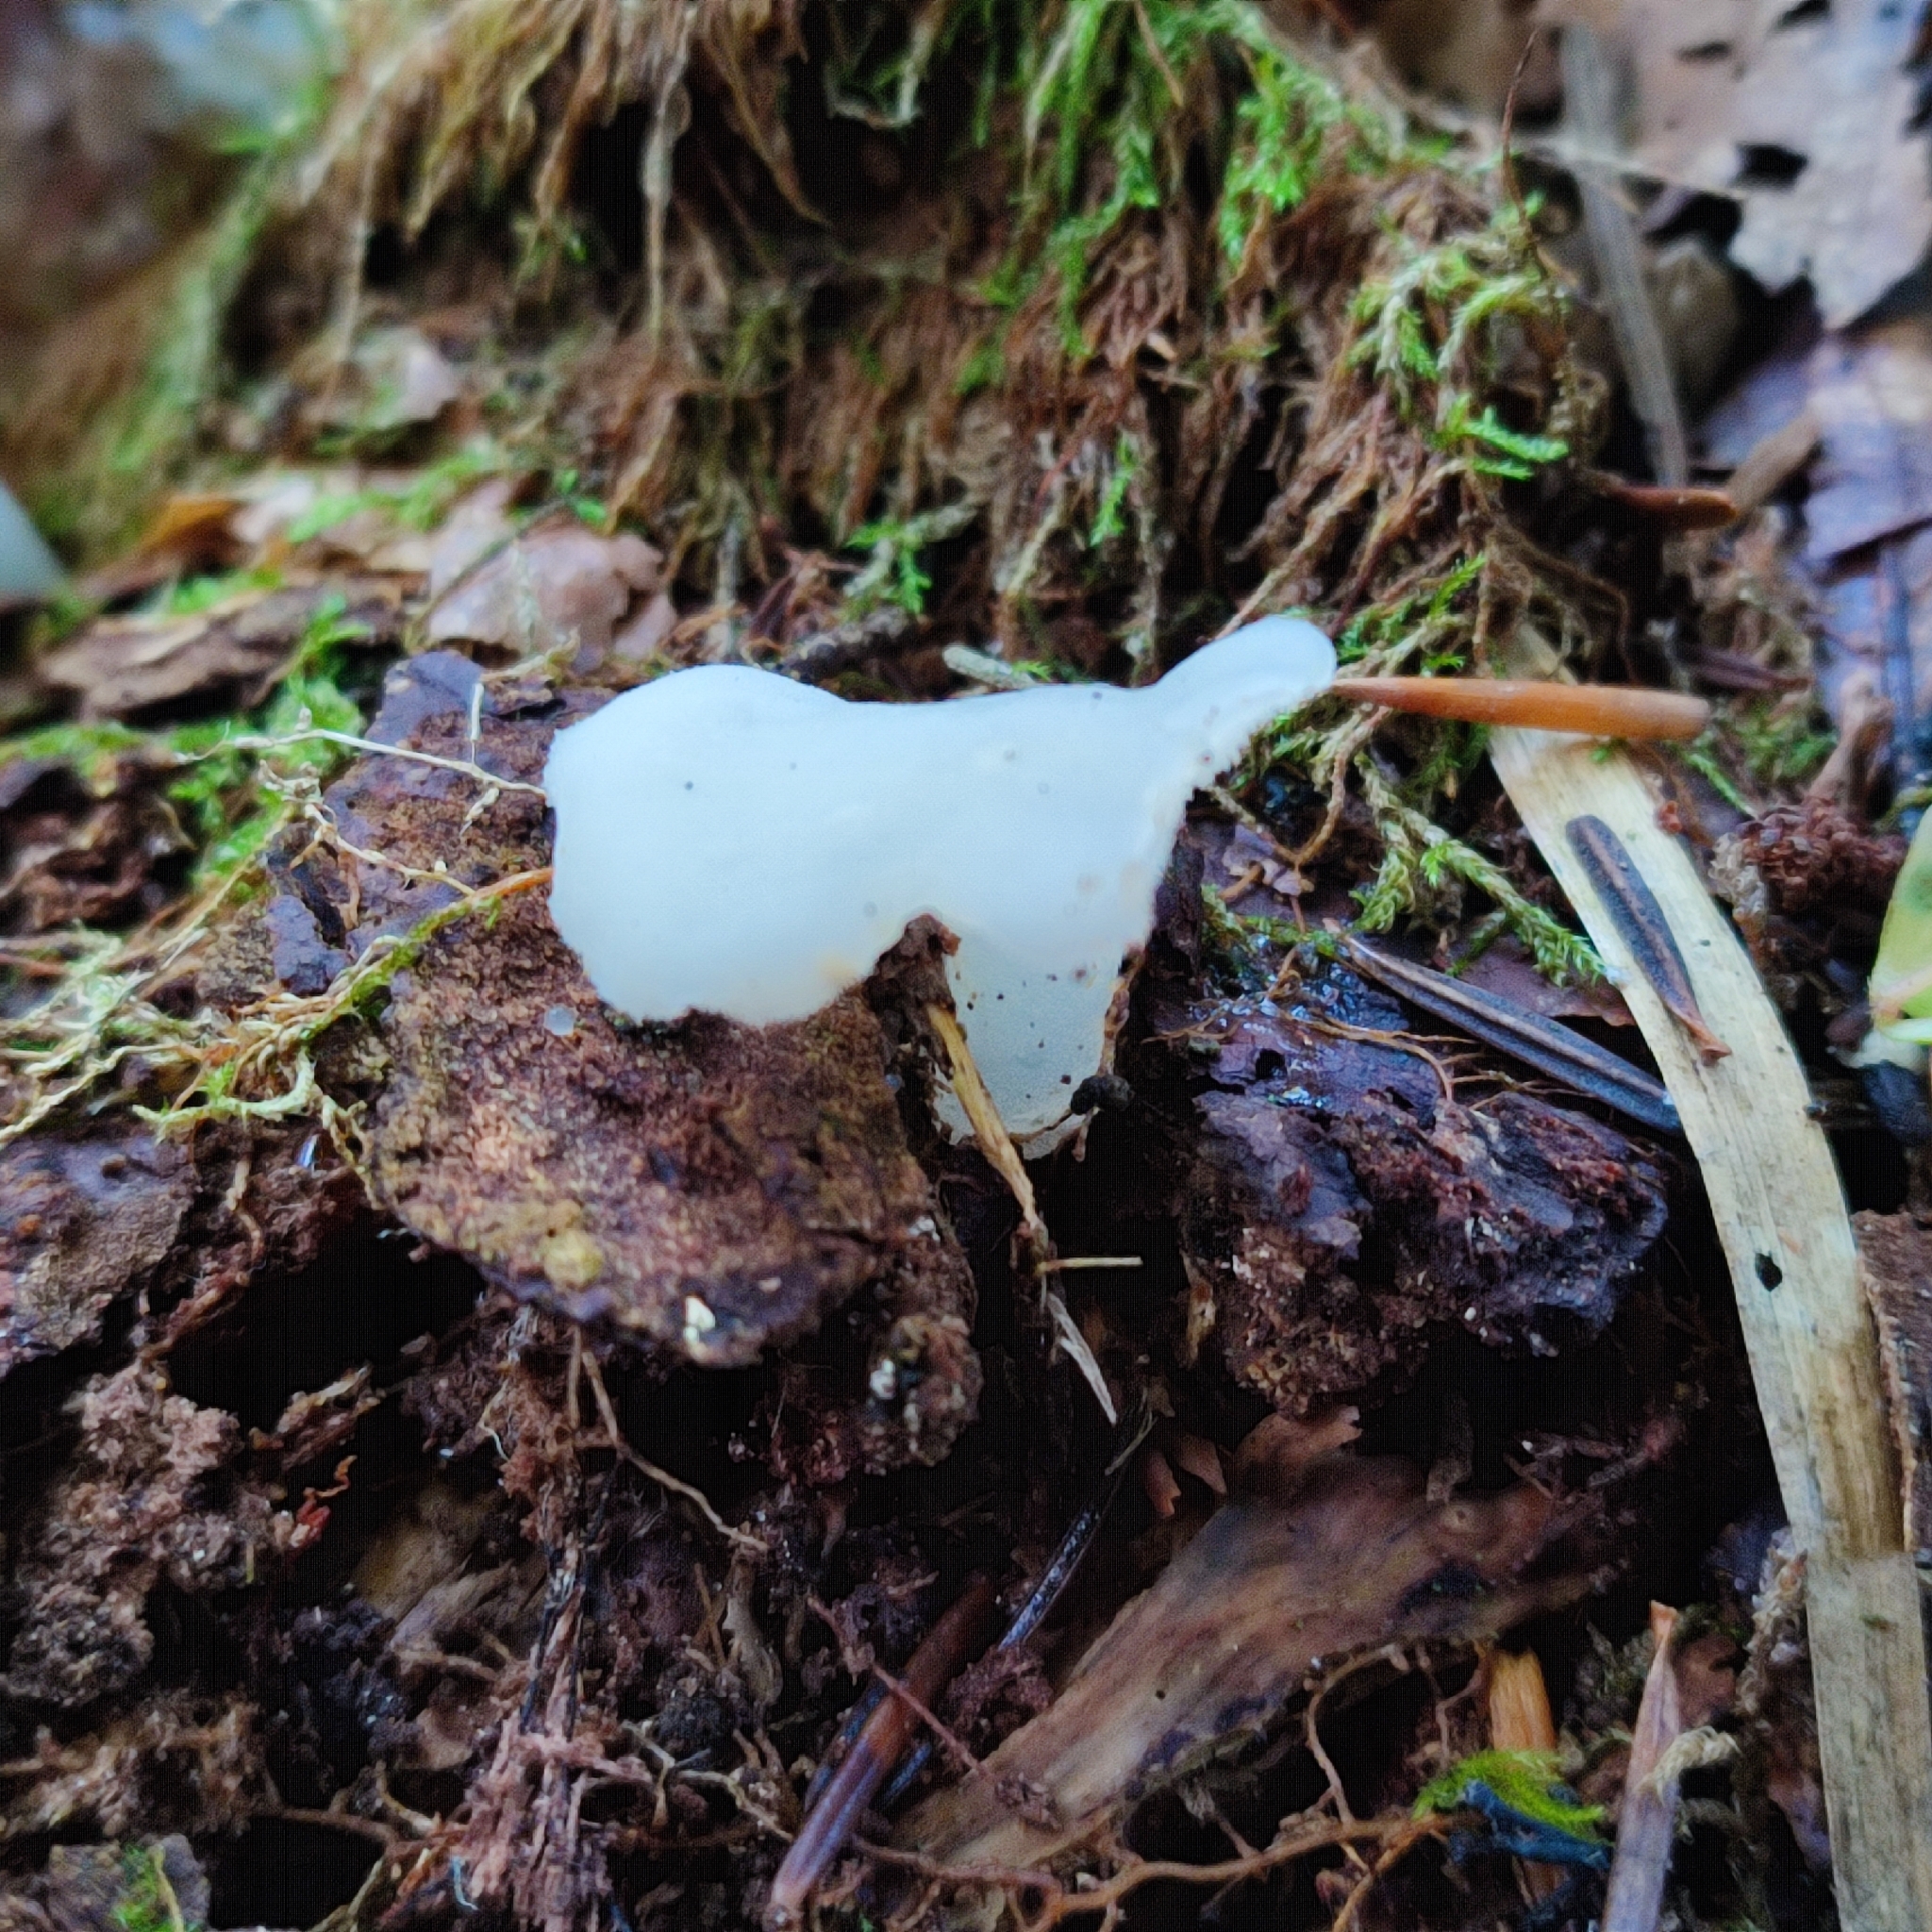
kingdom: Fungi
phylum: Basidiomycota
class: Agaricomycetes
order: Auriculariales
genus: Pseudohydnum
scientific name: Pseudohydnum gelatinosum
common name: Jelly tongue
